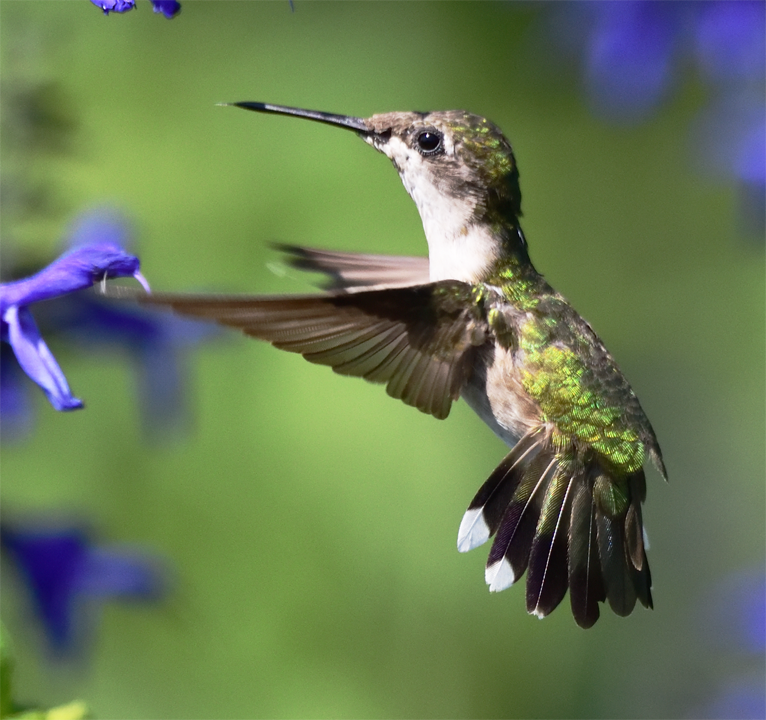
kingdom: Animalia
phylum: Chordata
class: Aves
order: Apodiformes
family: Trochilidae
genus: Archilochus
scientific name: Archilochus colubris
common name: Ruby-throated hummingbird
